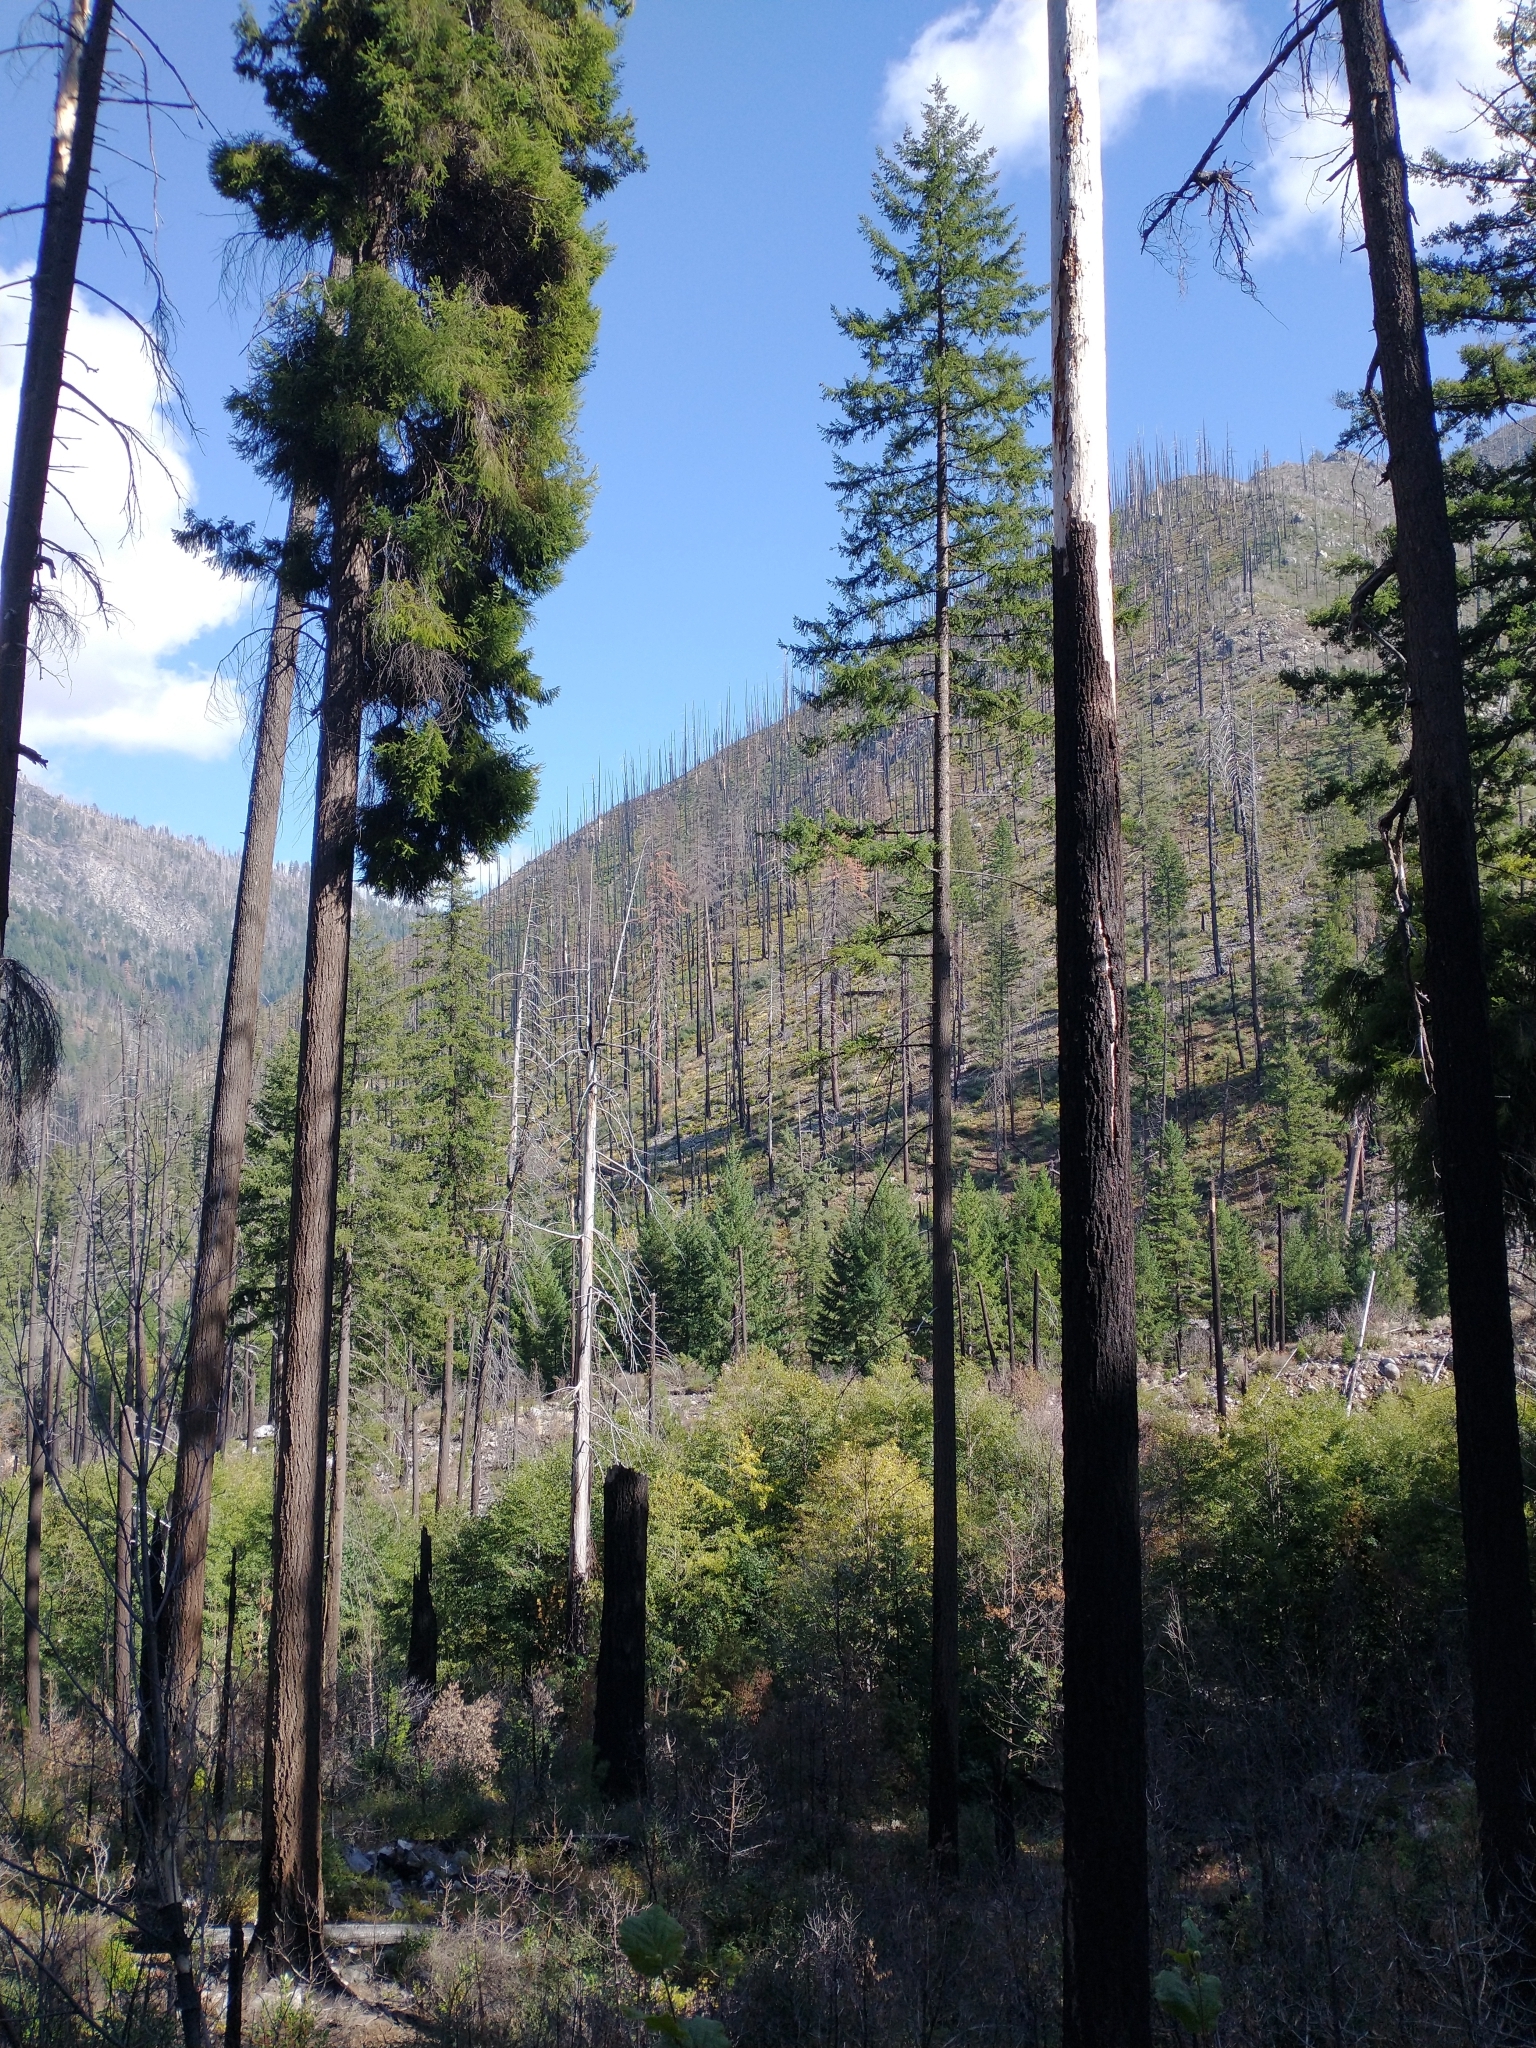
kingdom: Plantae
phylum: Tracheophyta
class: Pinopsida
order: Pinales
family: Pinaceae
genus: Pseudotsuga
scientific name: Pseudotsuga menziesii
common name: Douglas fir
